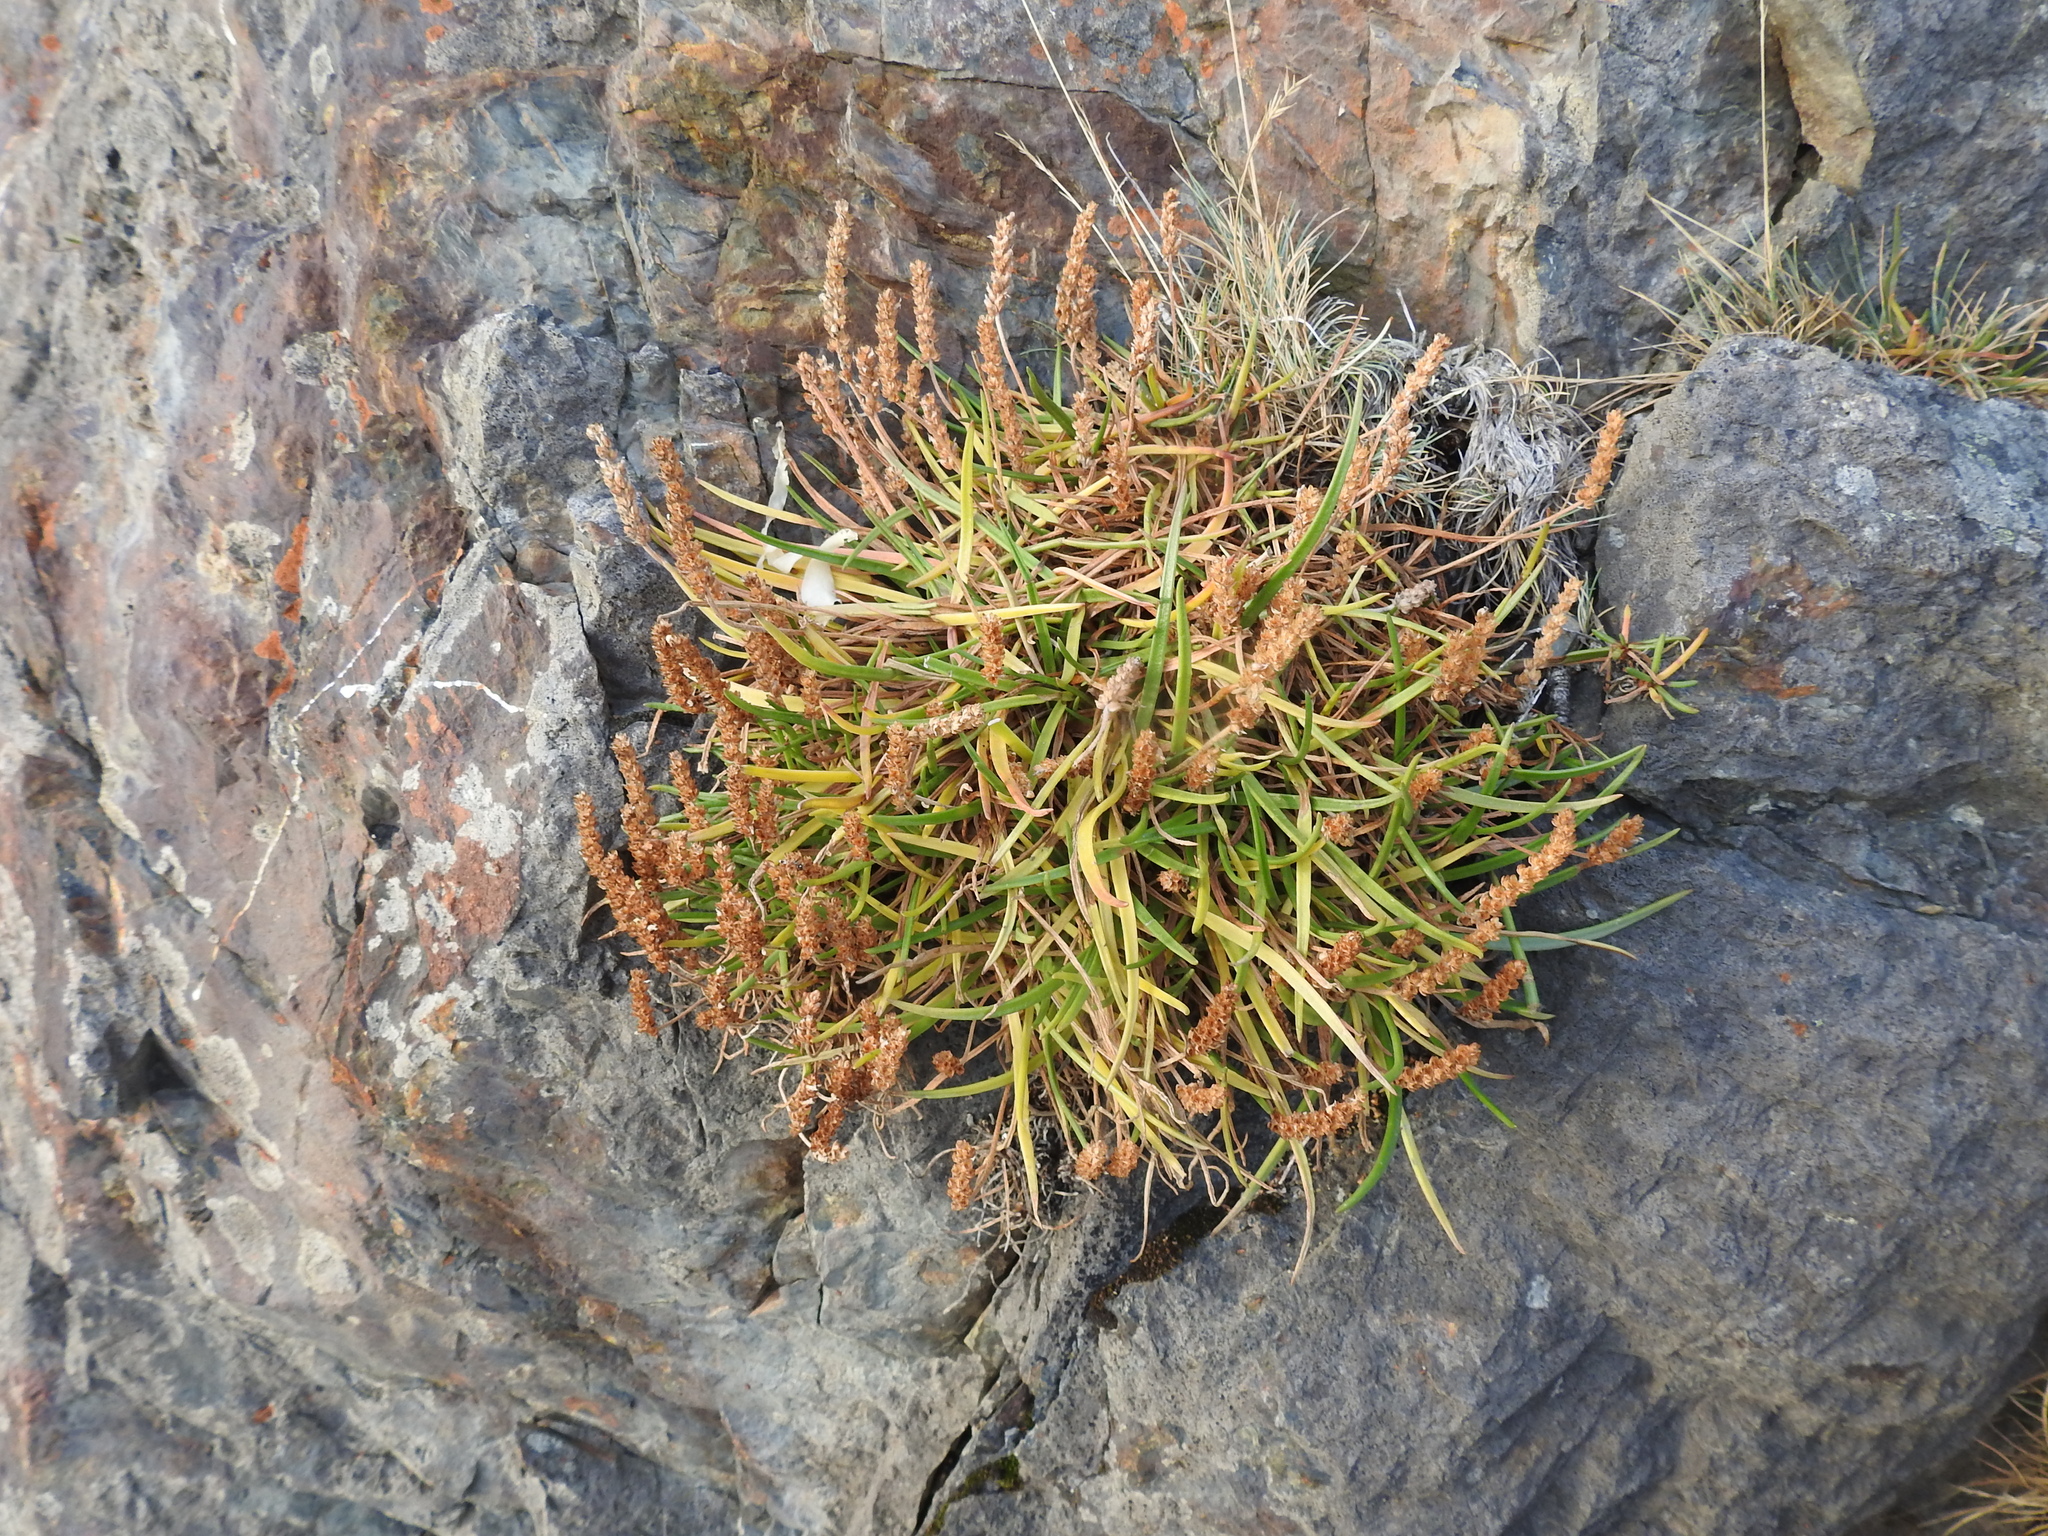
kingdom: Plantae
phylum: Tracheophyta
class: Magnoliopsida
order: Lamiales
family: Plantaginaceae
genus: Plantago
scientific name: Plantago maritima
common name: Sea plantain
